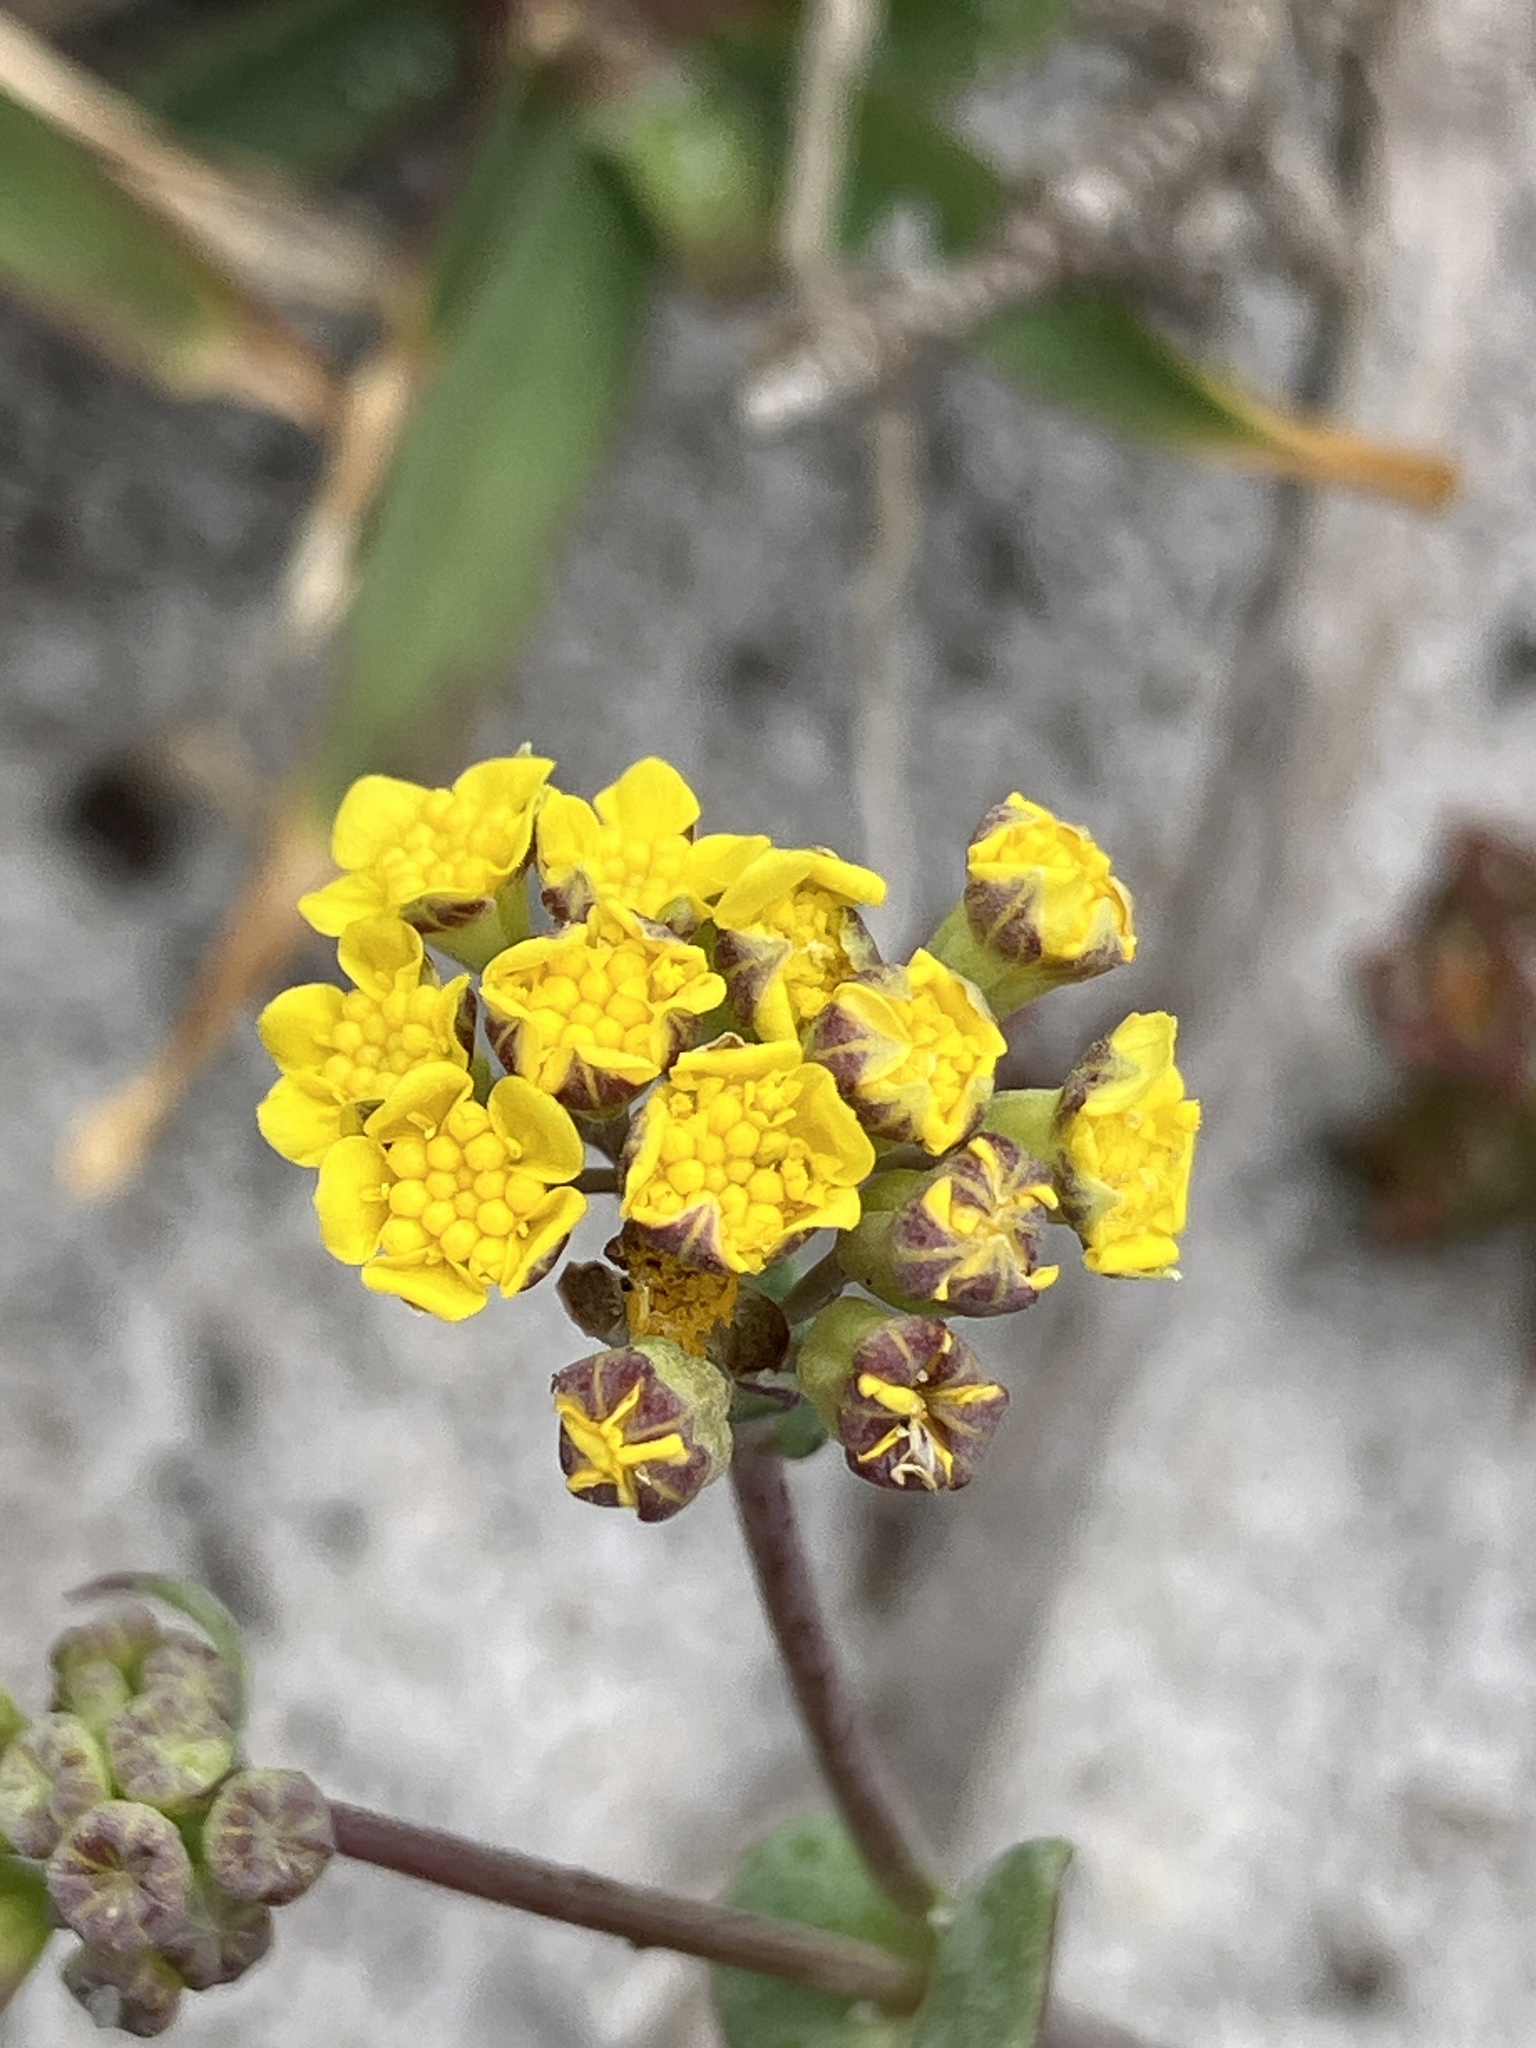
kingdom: Plantae
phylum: Tracheophyta
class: Magnoliopsida
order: Asterales
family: Asteraceae
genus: Gymnodiscus
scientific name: Gymnodiscus capillaris
